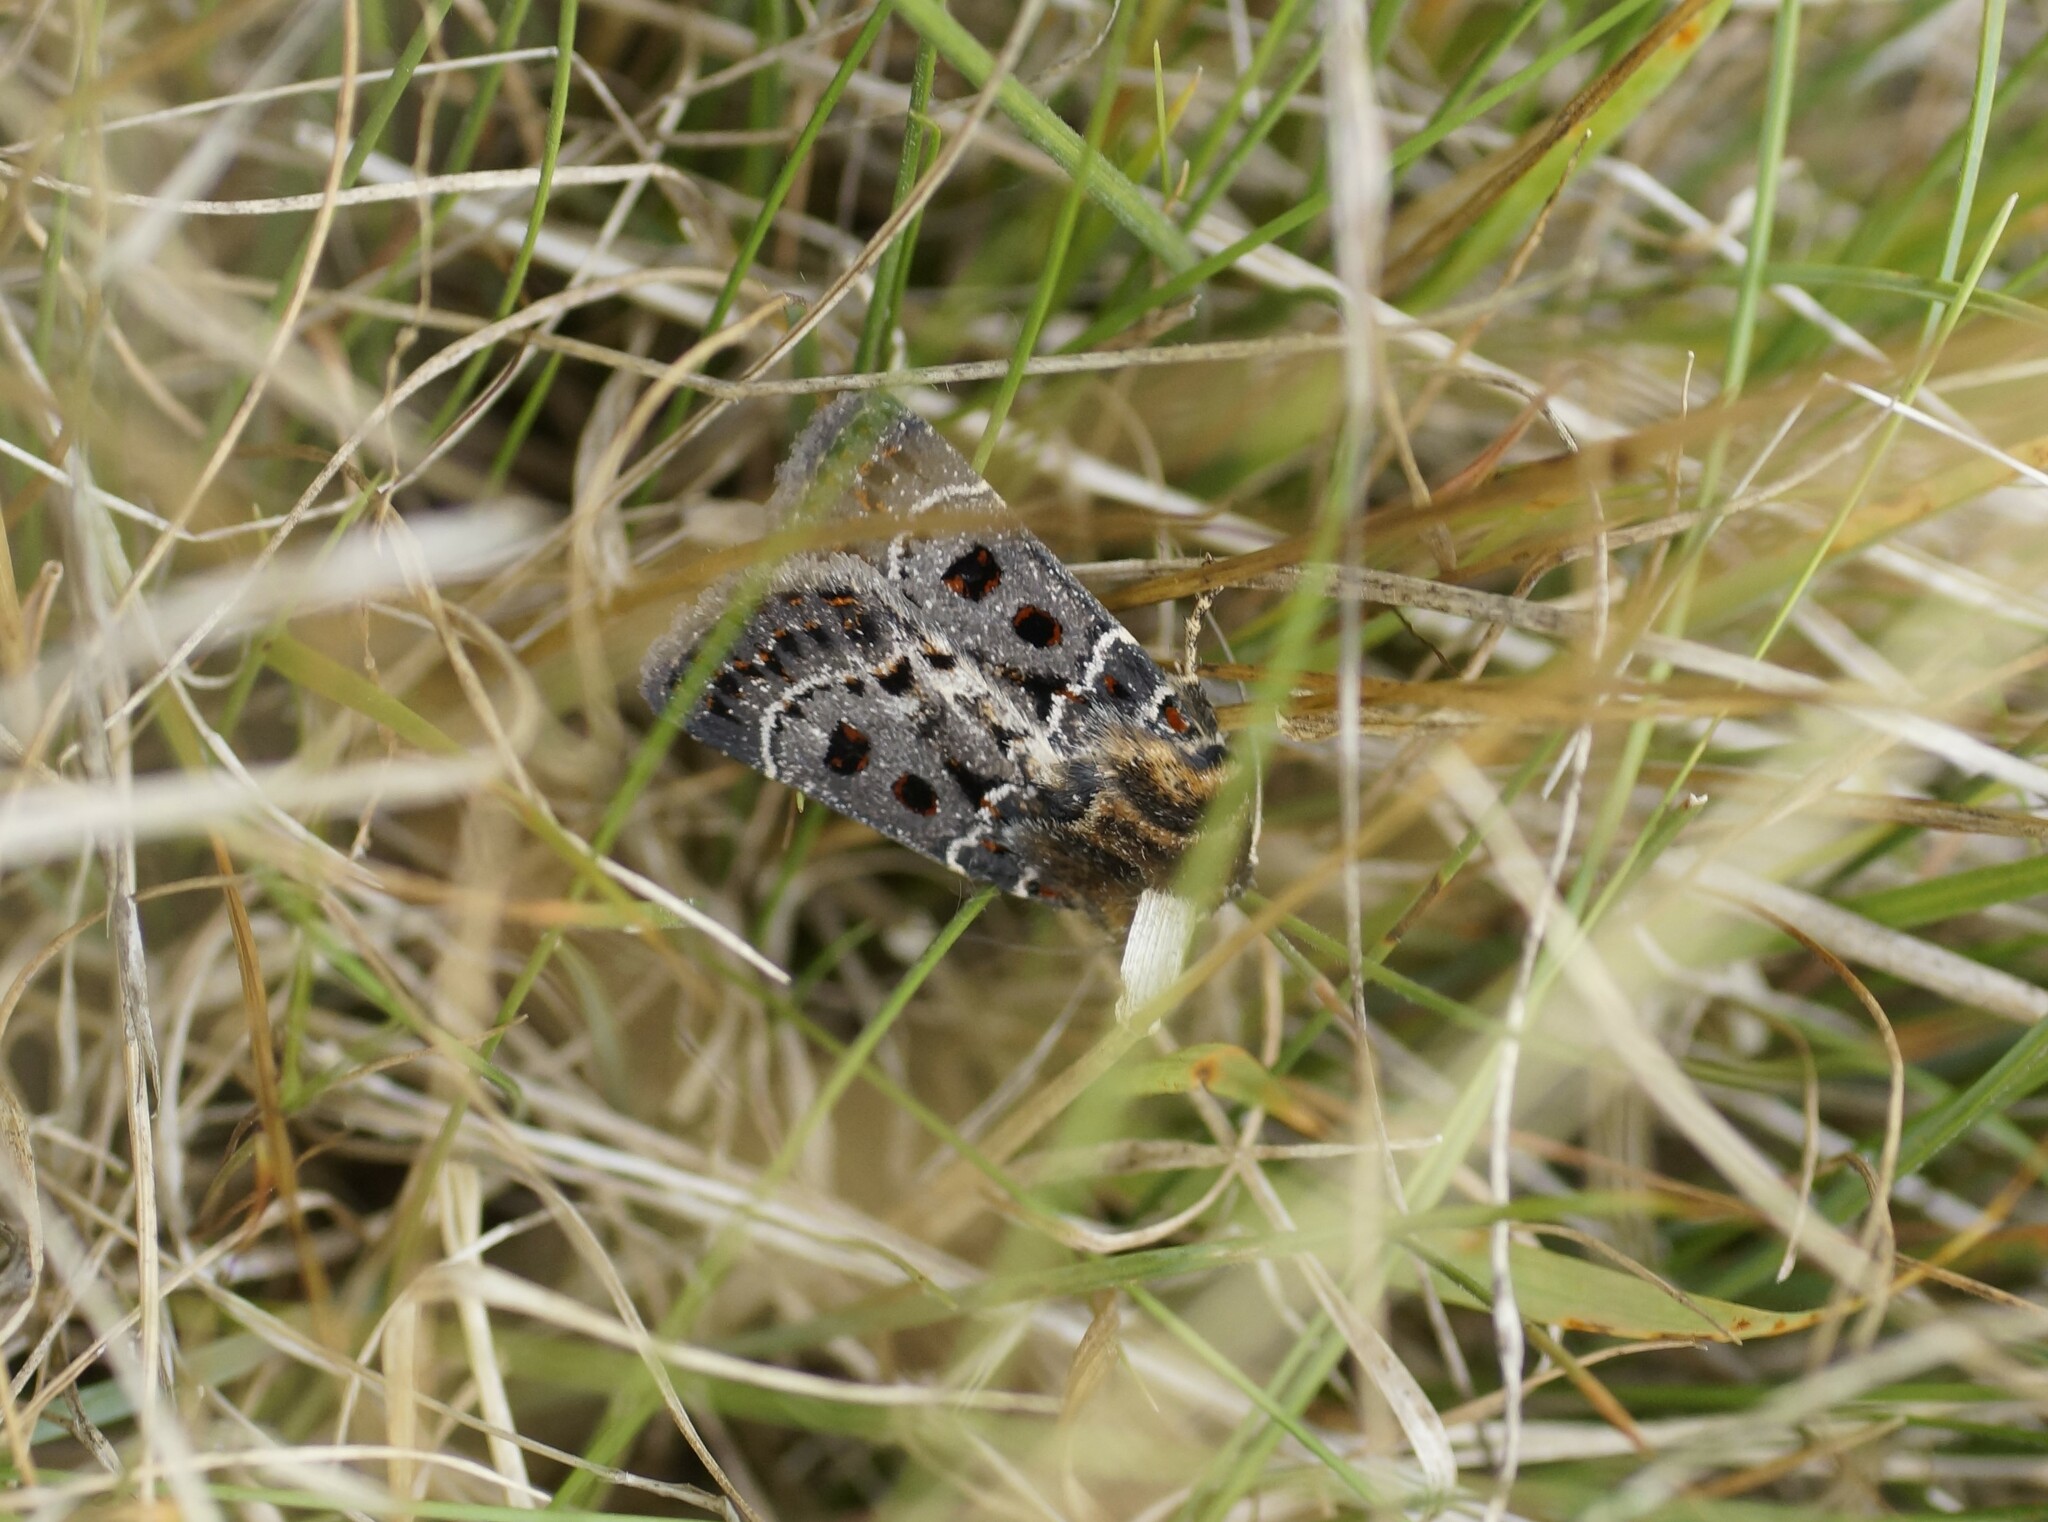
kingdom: Animalia
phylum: Arthropoda
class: Insecta
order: Lepidoptera
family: Noctuidae
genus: Proteuxoa
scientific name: Proteuxoa sanguinipuncta
